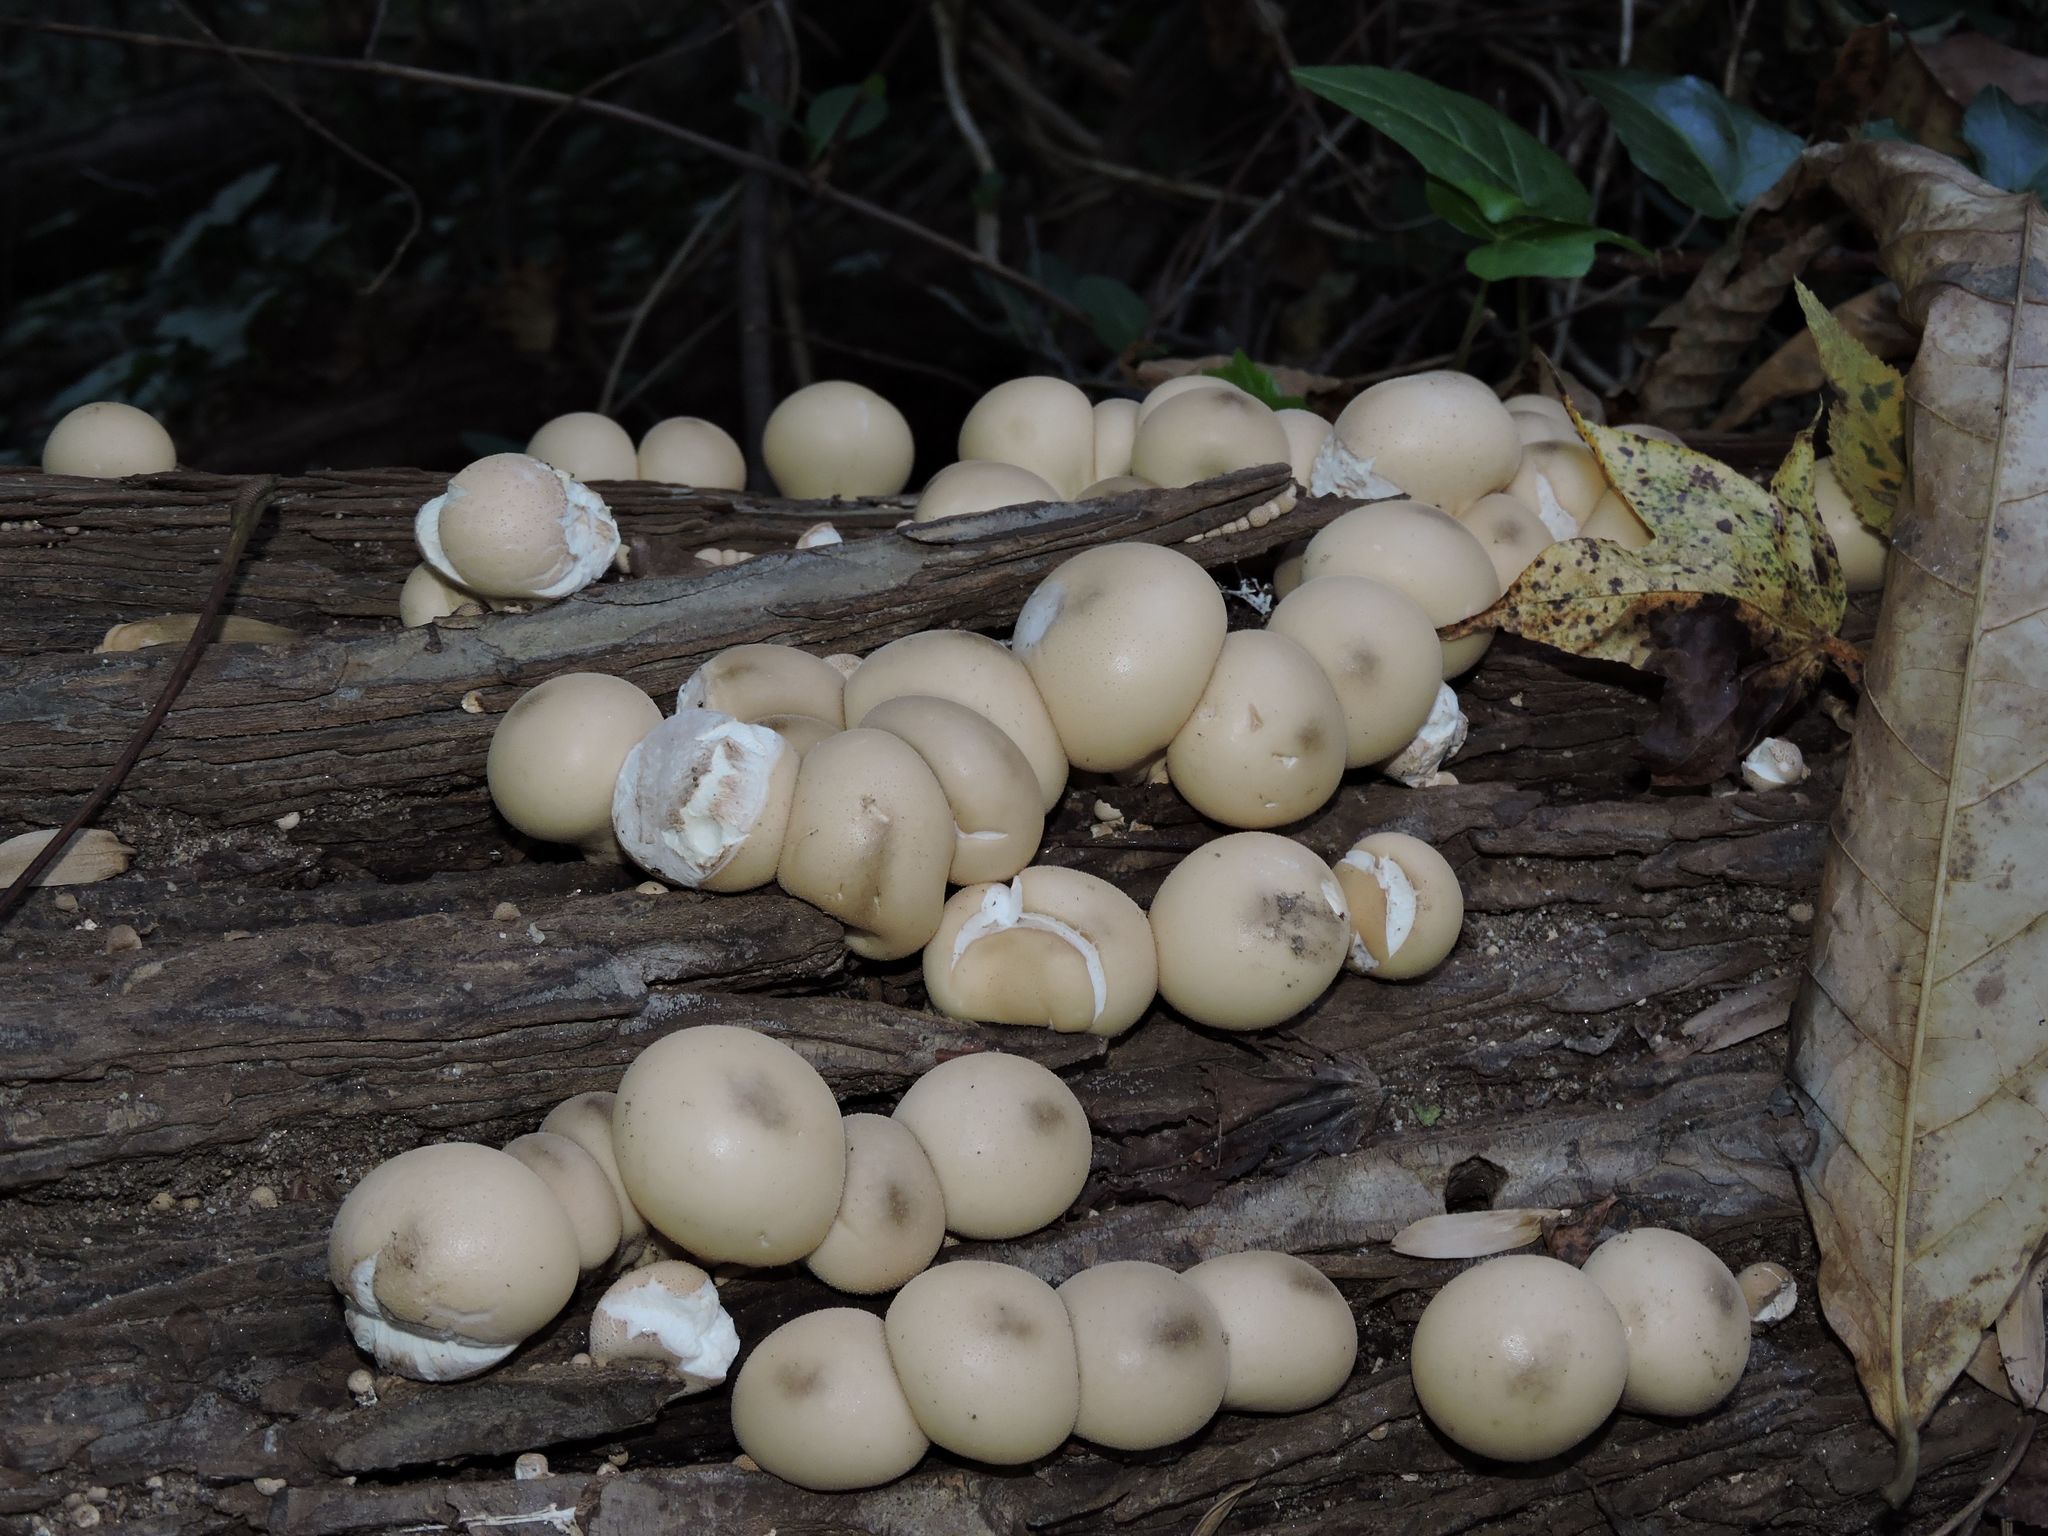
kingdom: Fungi
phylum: Basidiomycota
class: Agaricomycetes
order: Agaricales
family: Lycoperdaceae
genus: Apioperdon
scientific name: Apioperdon pyriforme
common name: Pear-shaped puffball
